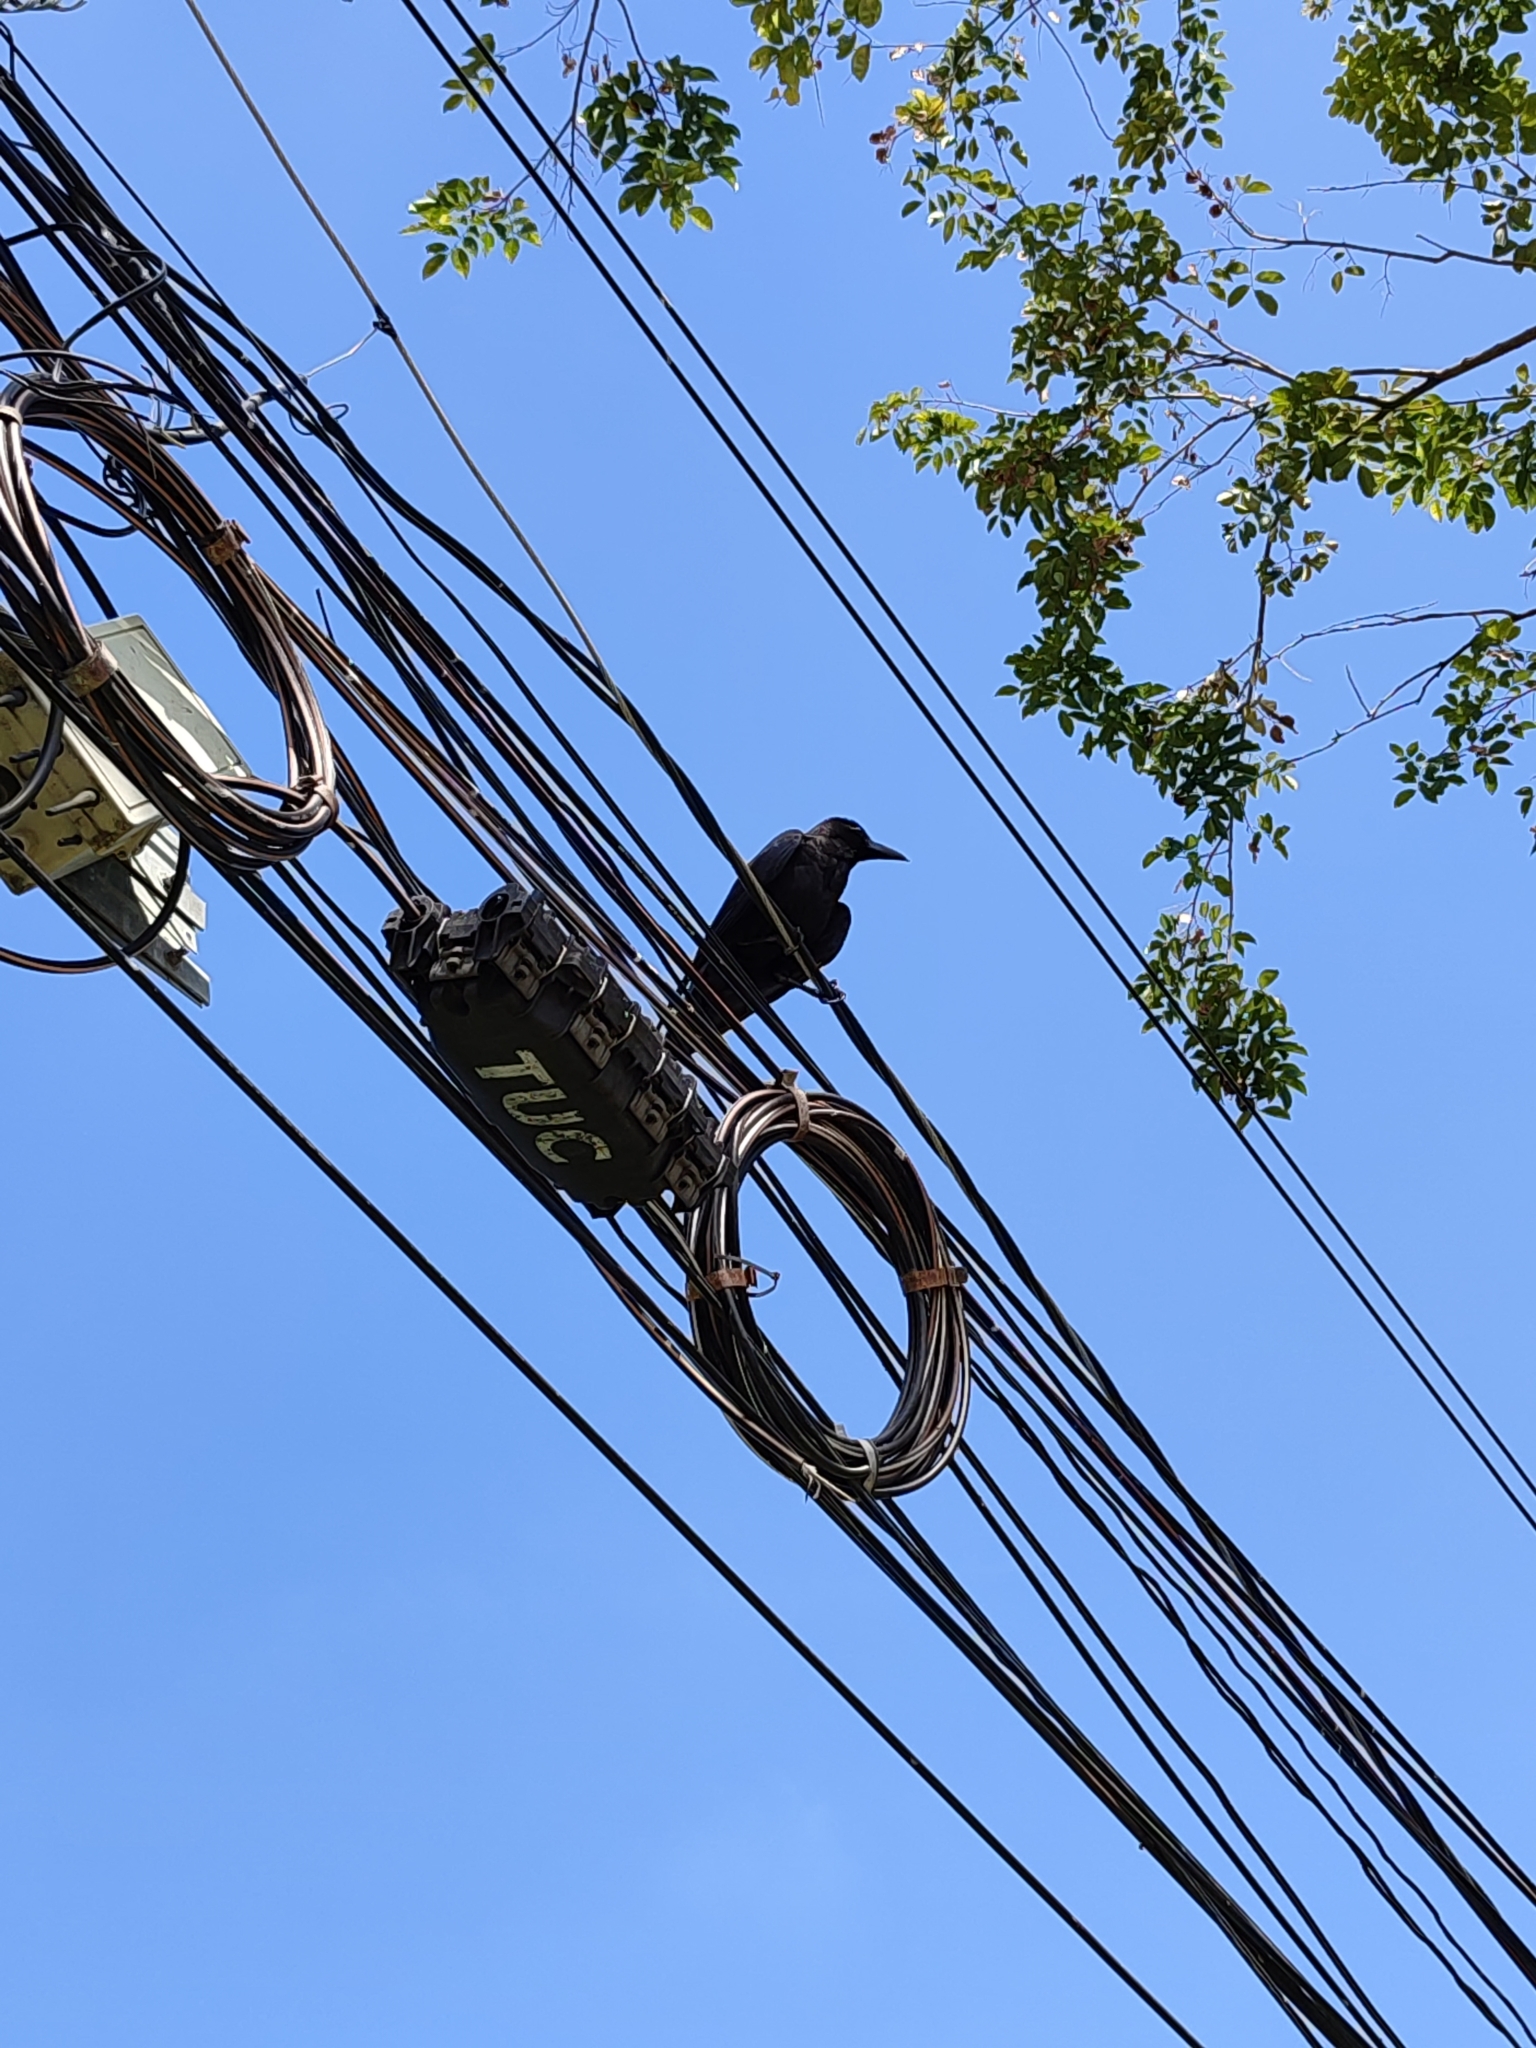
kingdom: Animalia
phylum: Chordata
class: Aves
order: Passeriformes
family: Corvidae
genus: Corvus
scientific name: Corvus macrorhynchos
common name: Large-billed crow
